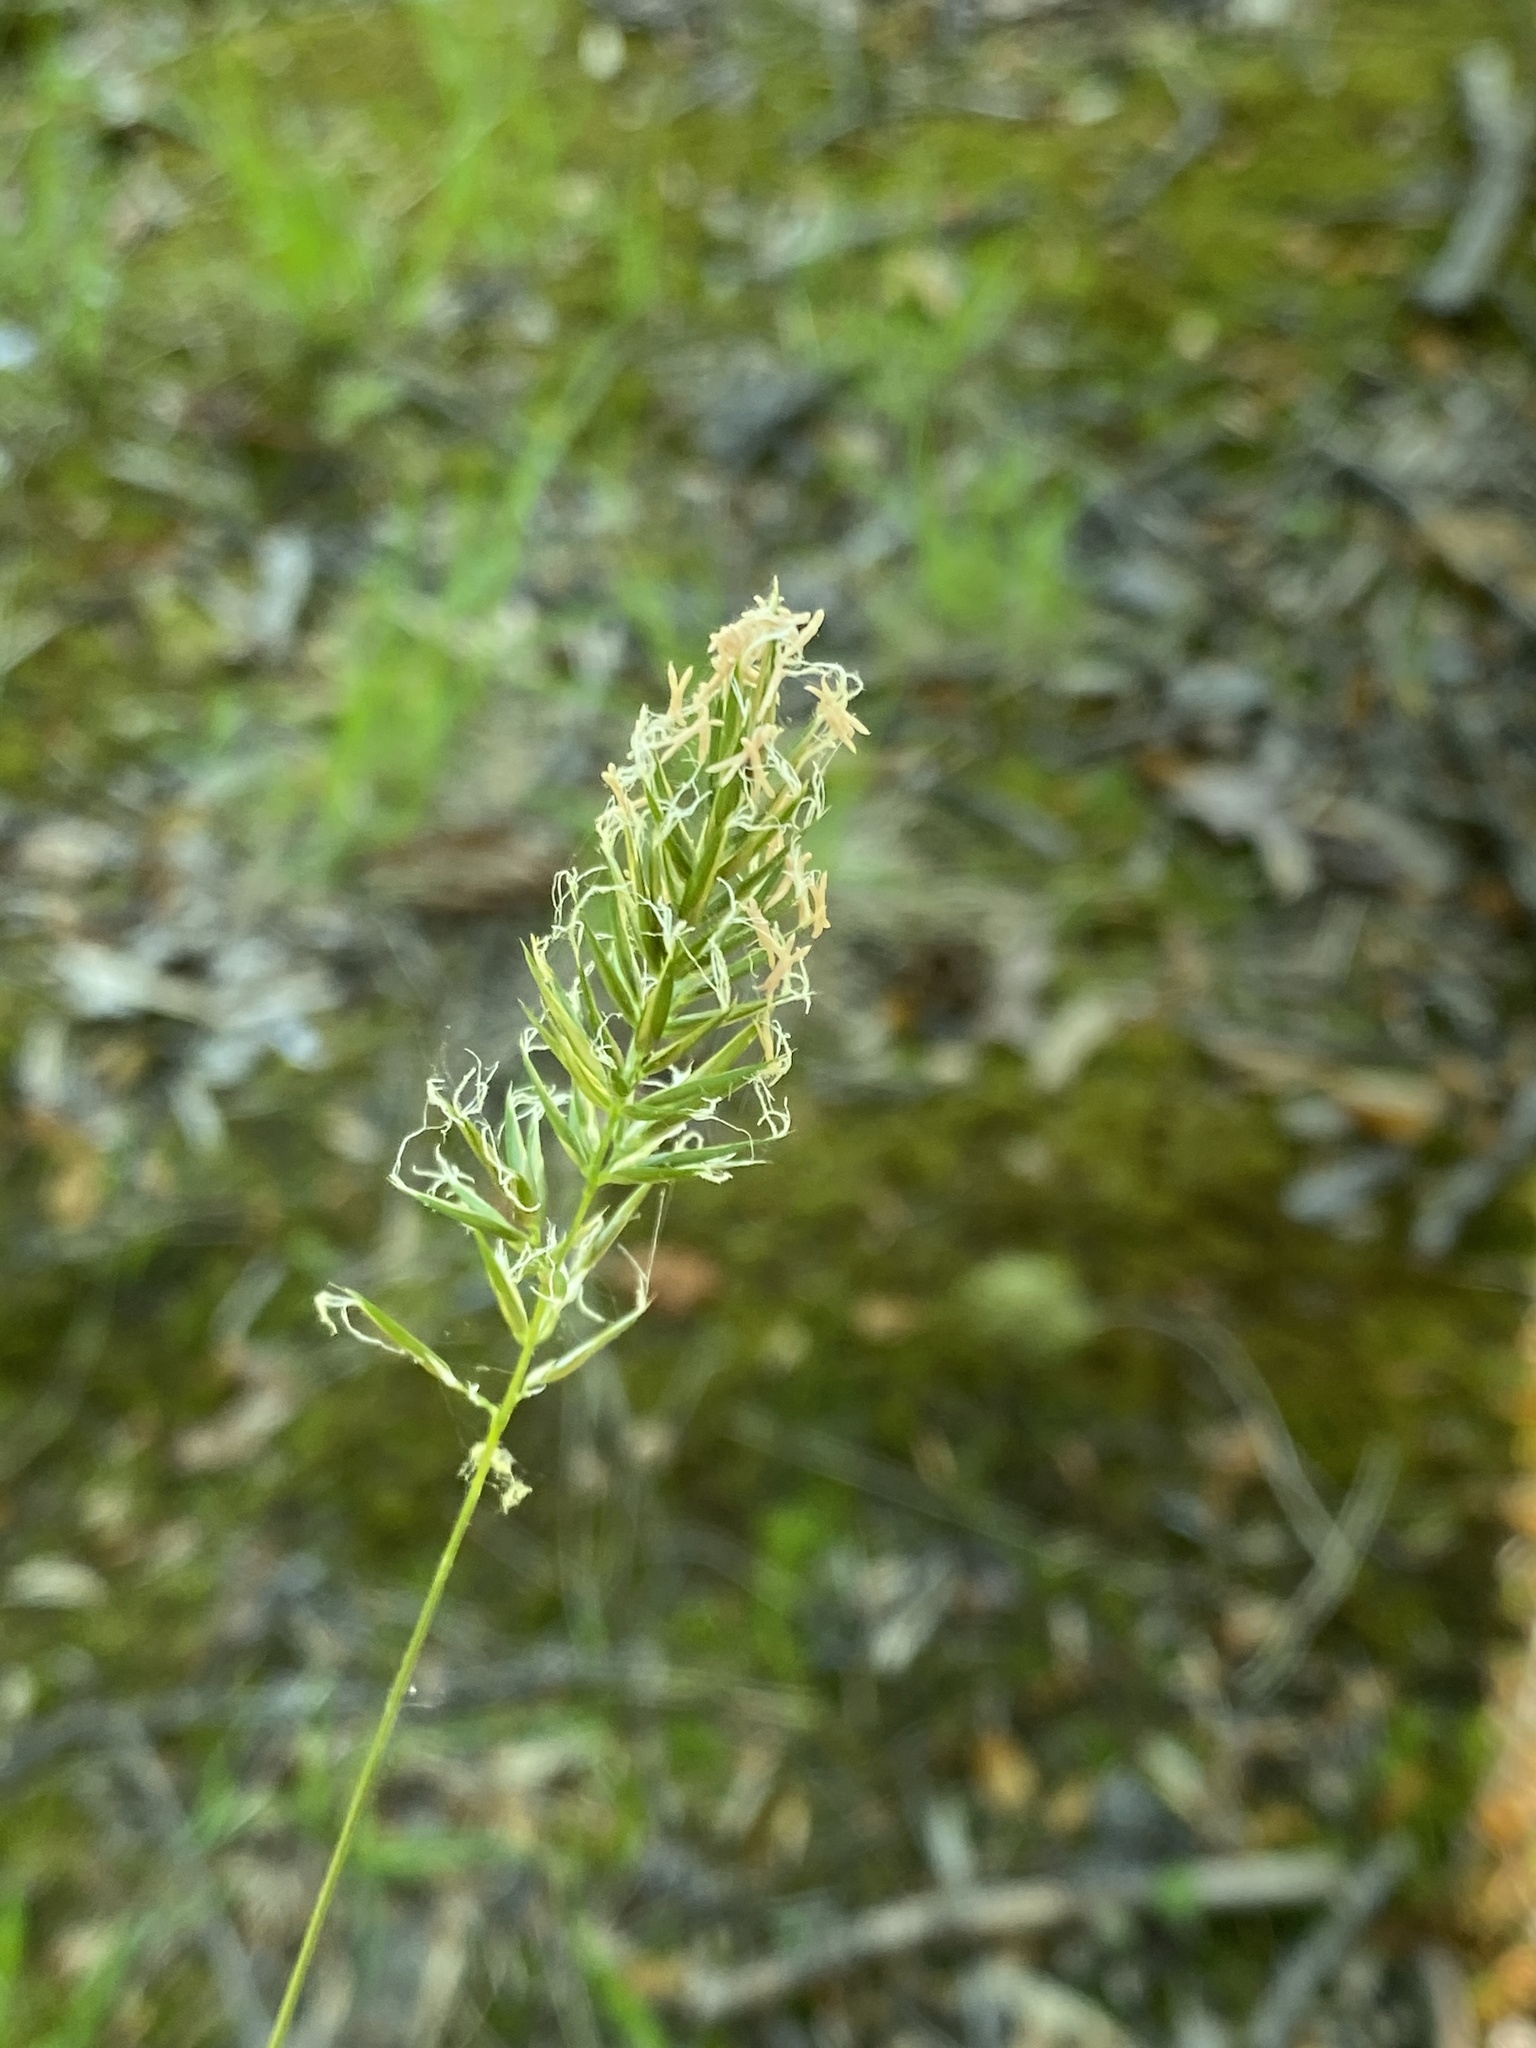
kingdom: Plantae
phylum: Tracheophyta
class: Liliopsida
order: Poales
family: Poaceae
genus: Anthoxanthum
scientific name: Anthoxanthum odoratum
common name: Sweet vernalgrass
